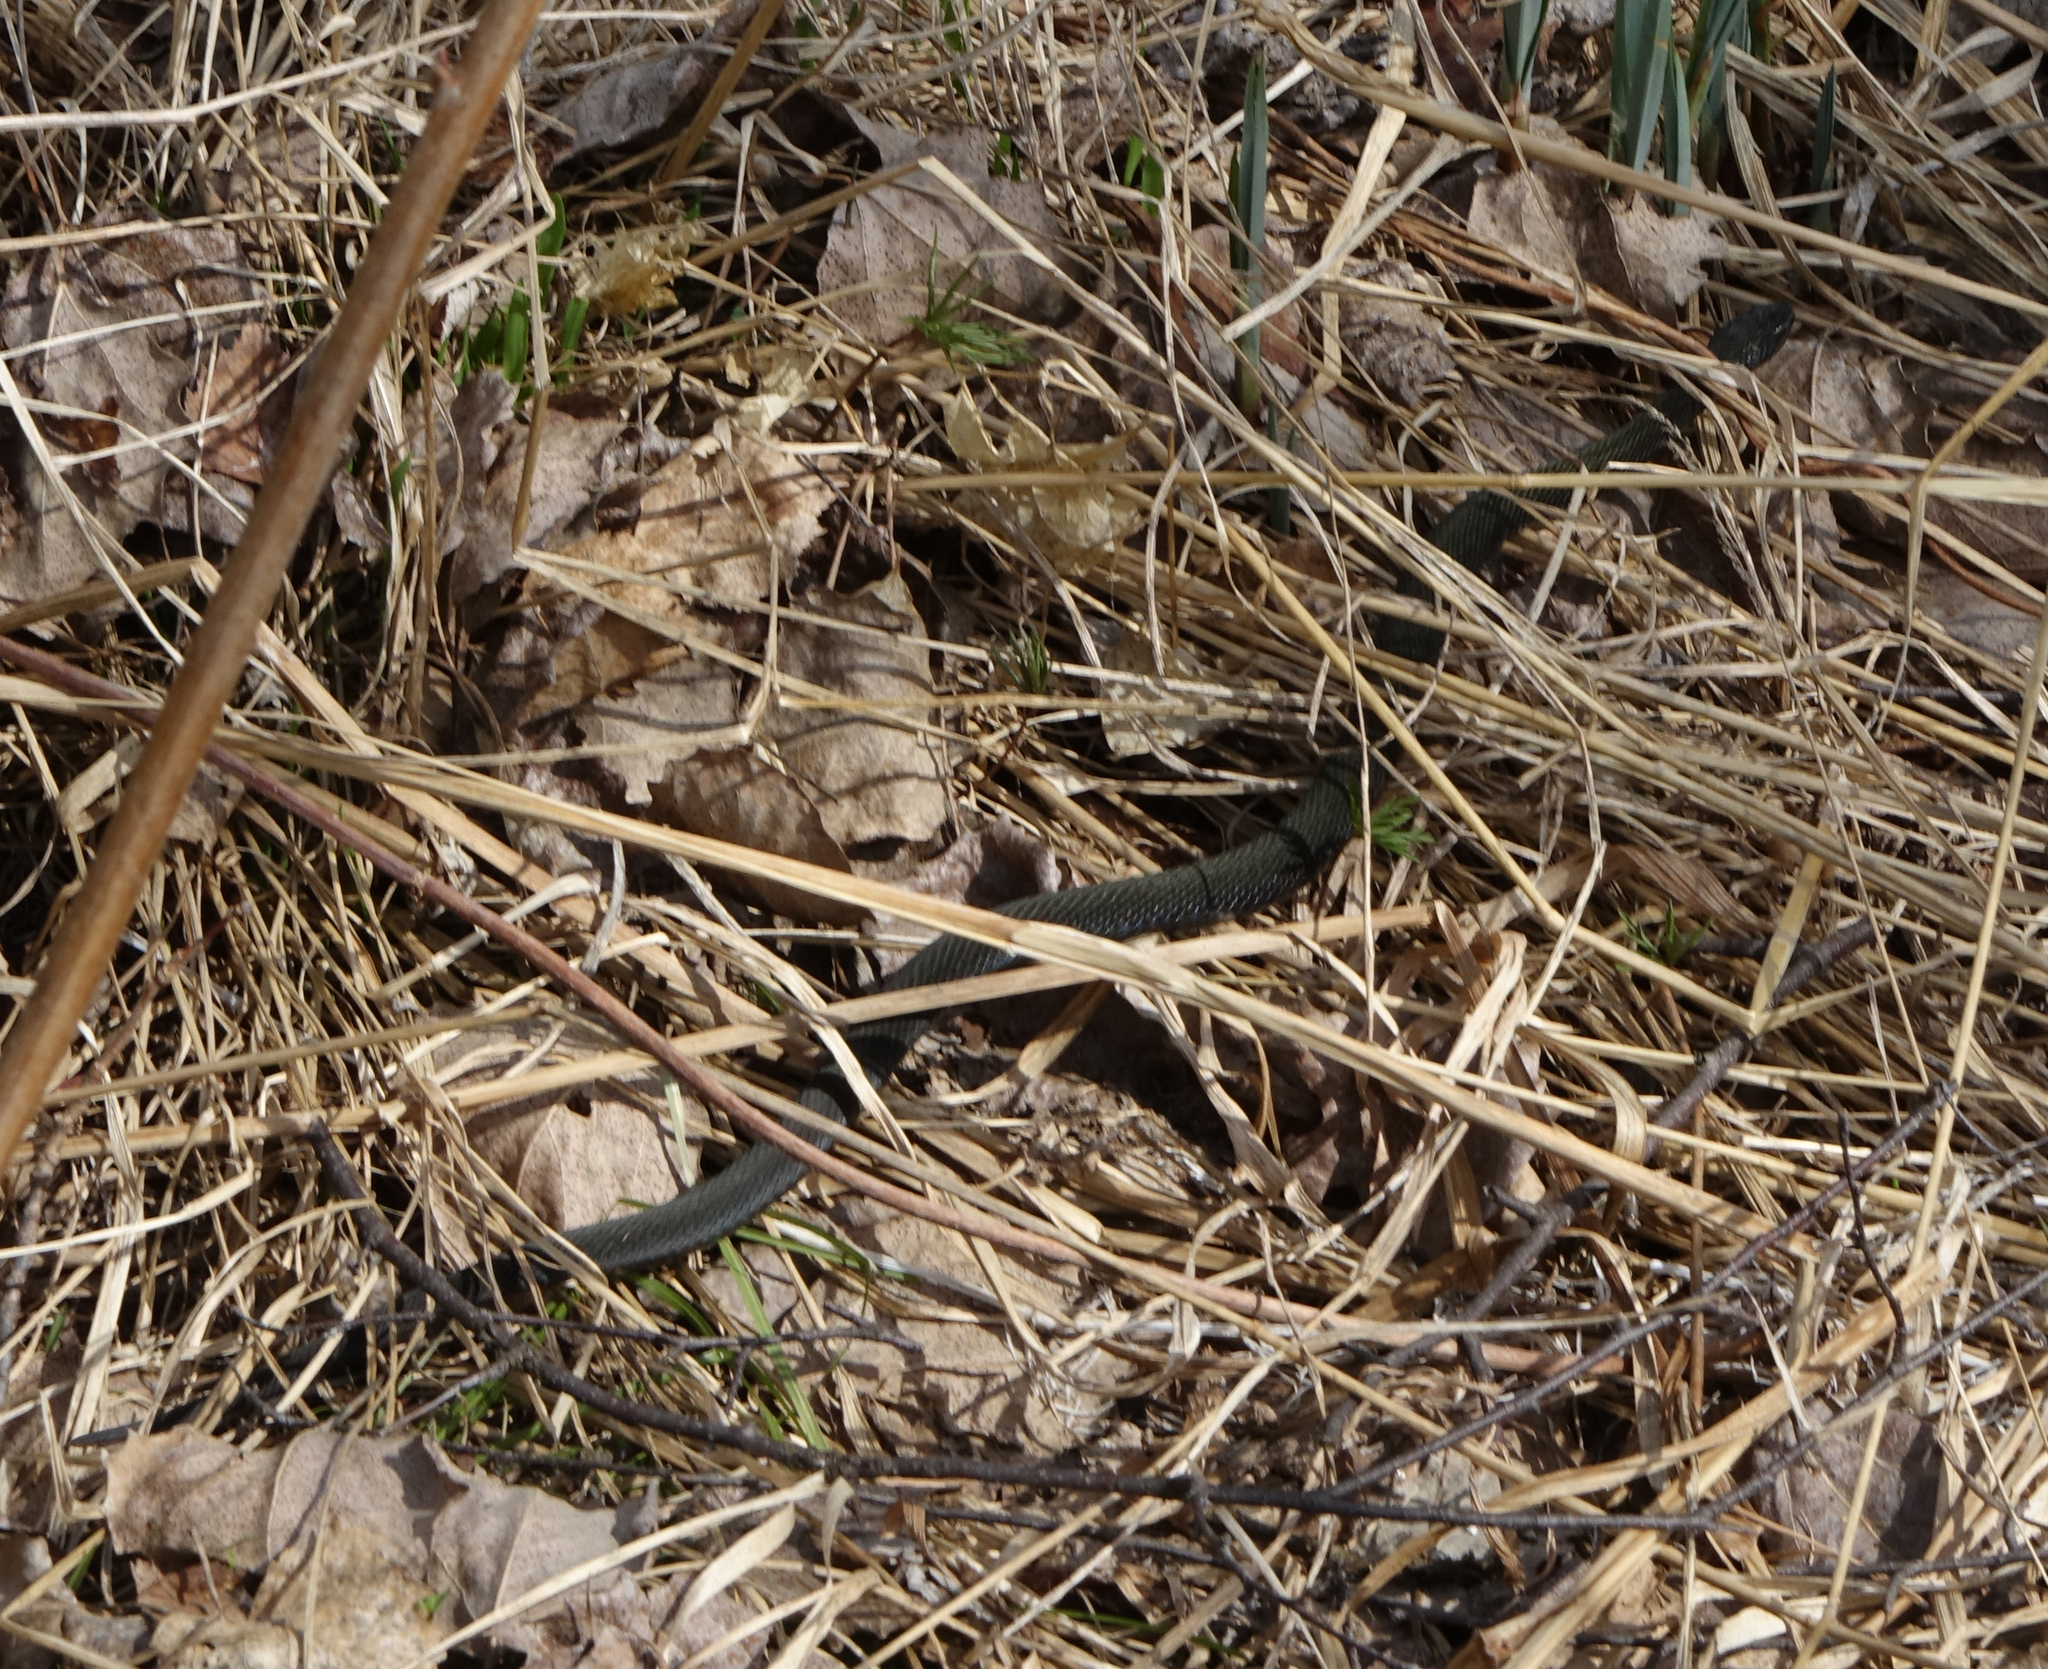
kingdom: Animalia
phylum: Chordata
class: Squamata
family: Viperidae
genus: Vipera
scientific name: Vipera berus
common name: Adder
